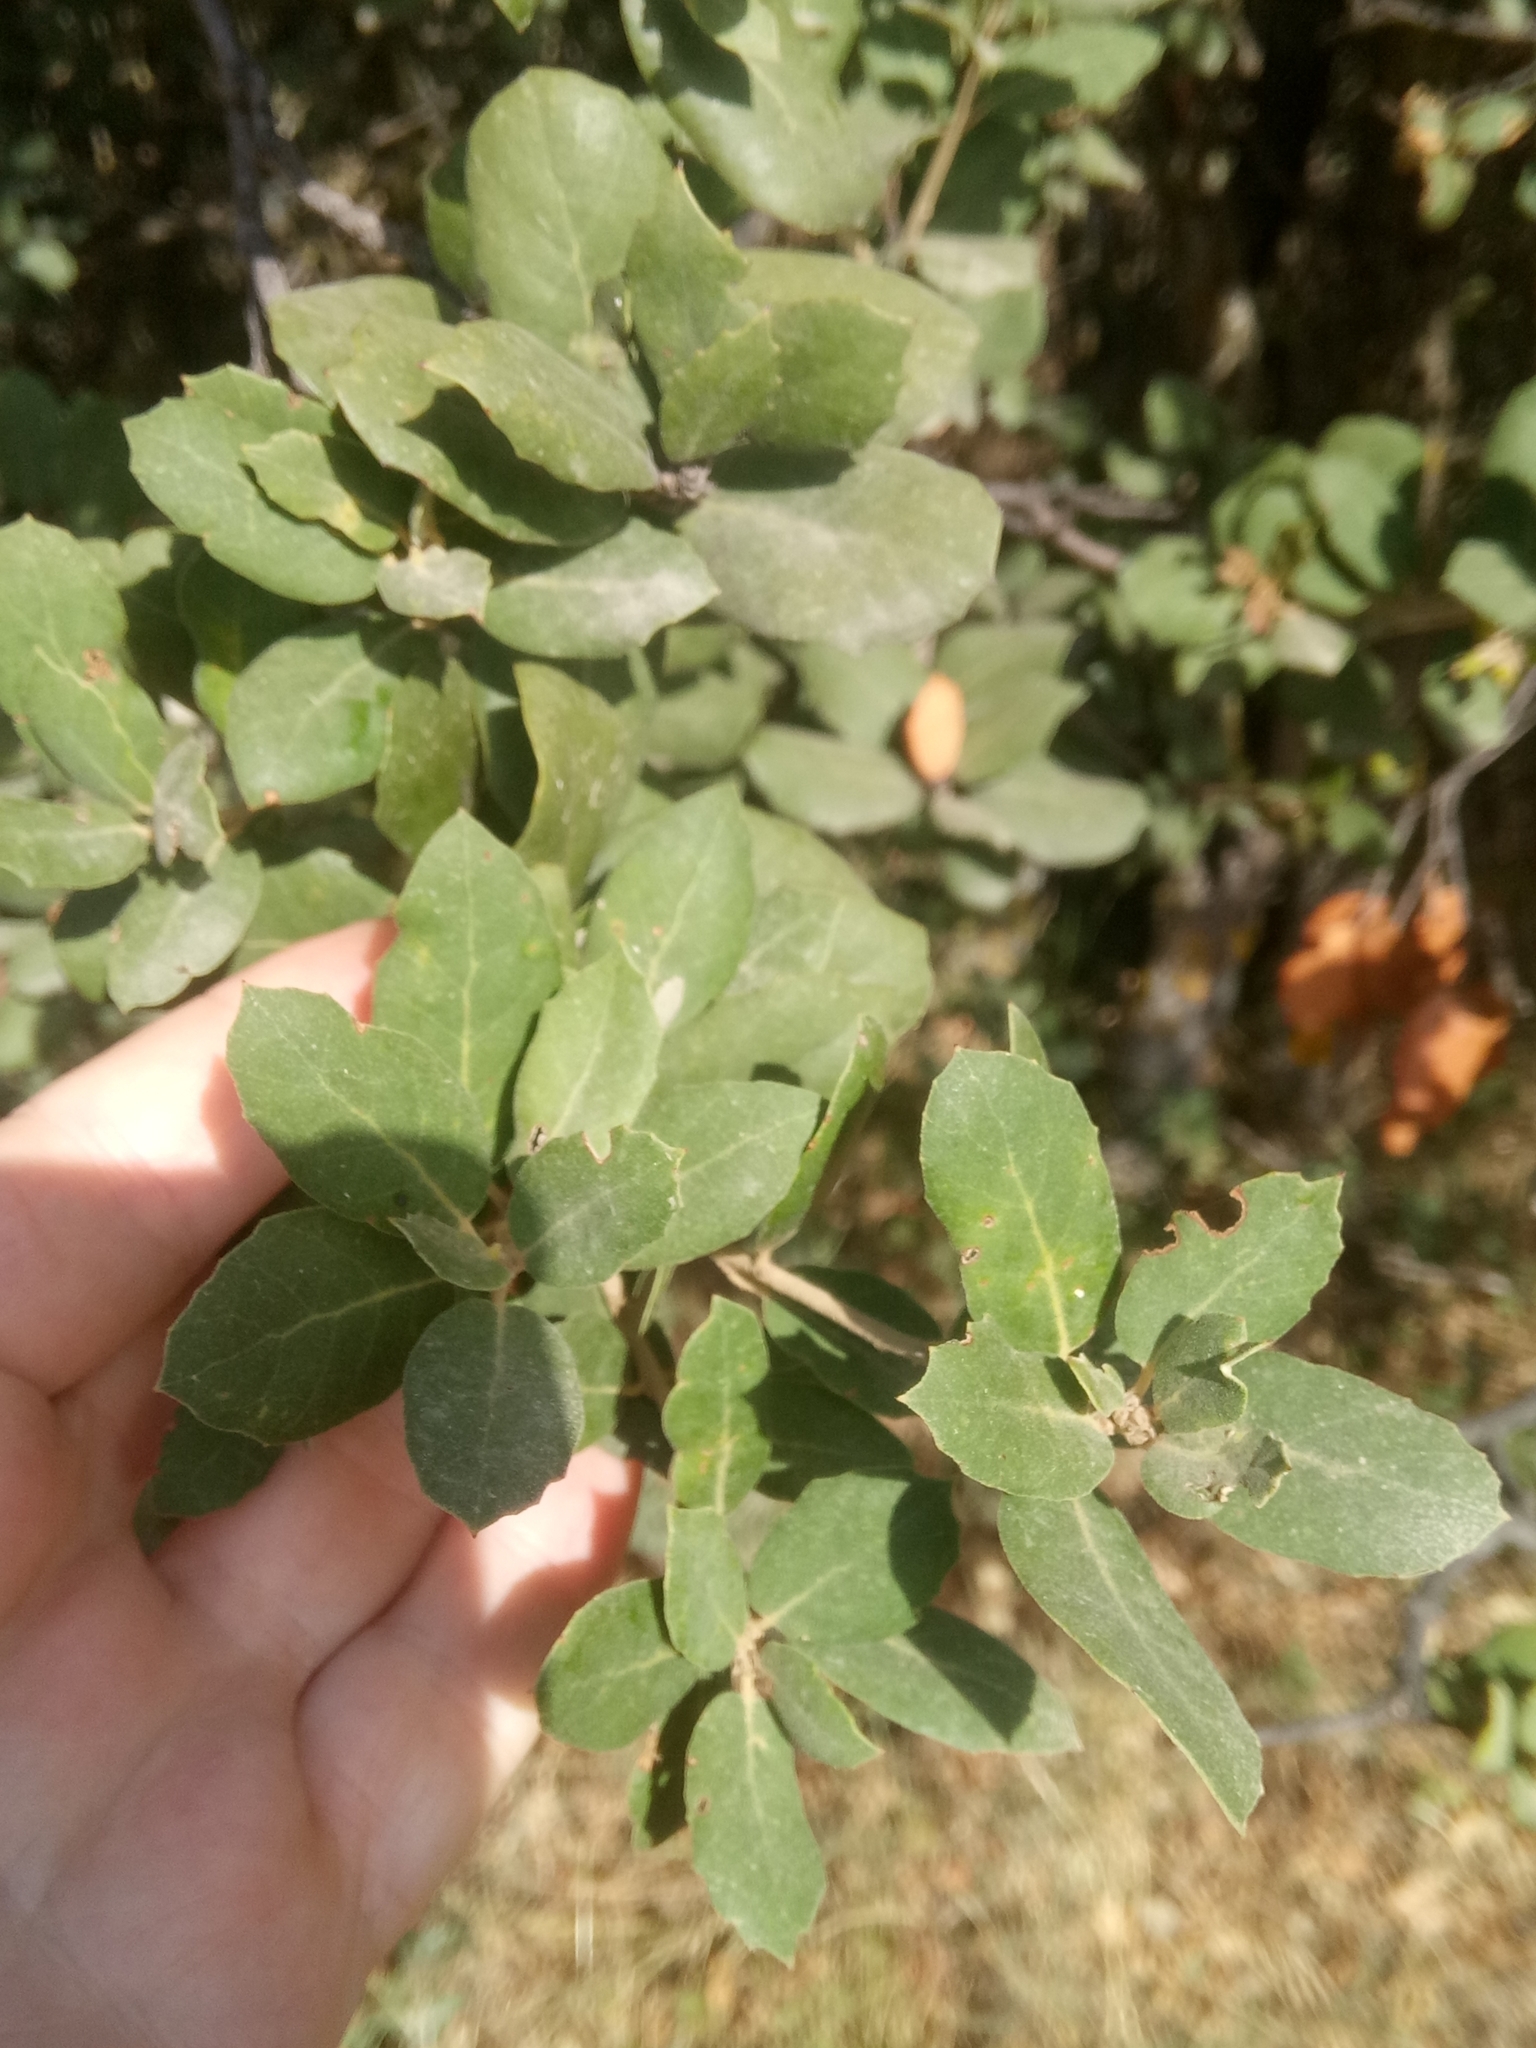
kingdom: Plantae
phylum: Tracheophyta
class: Magnoliopsida
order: Fagales
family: Fagaceae
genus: Quercus
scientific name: Quercus rotundifolia
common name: Holm oak
